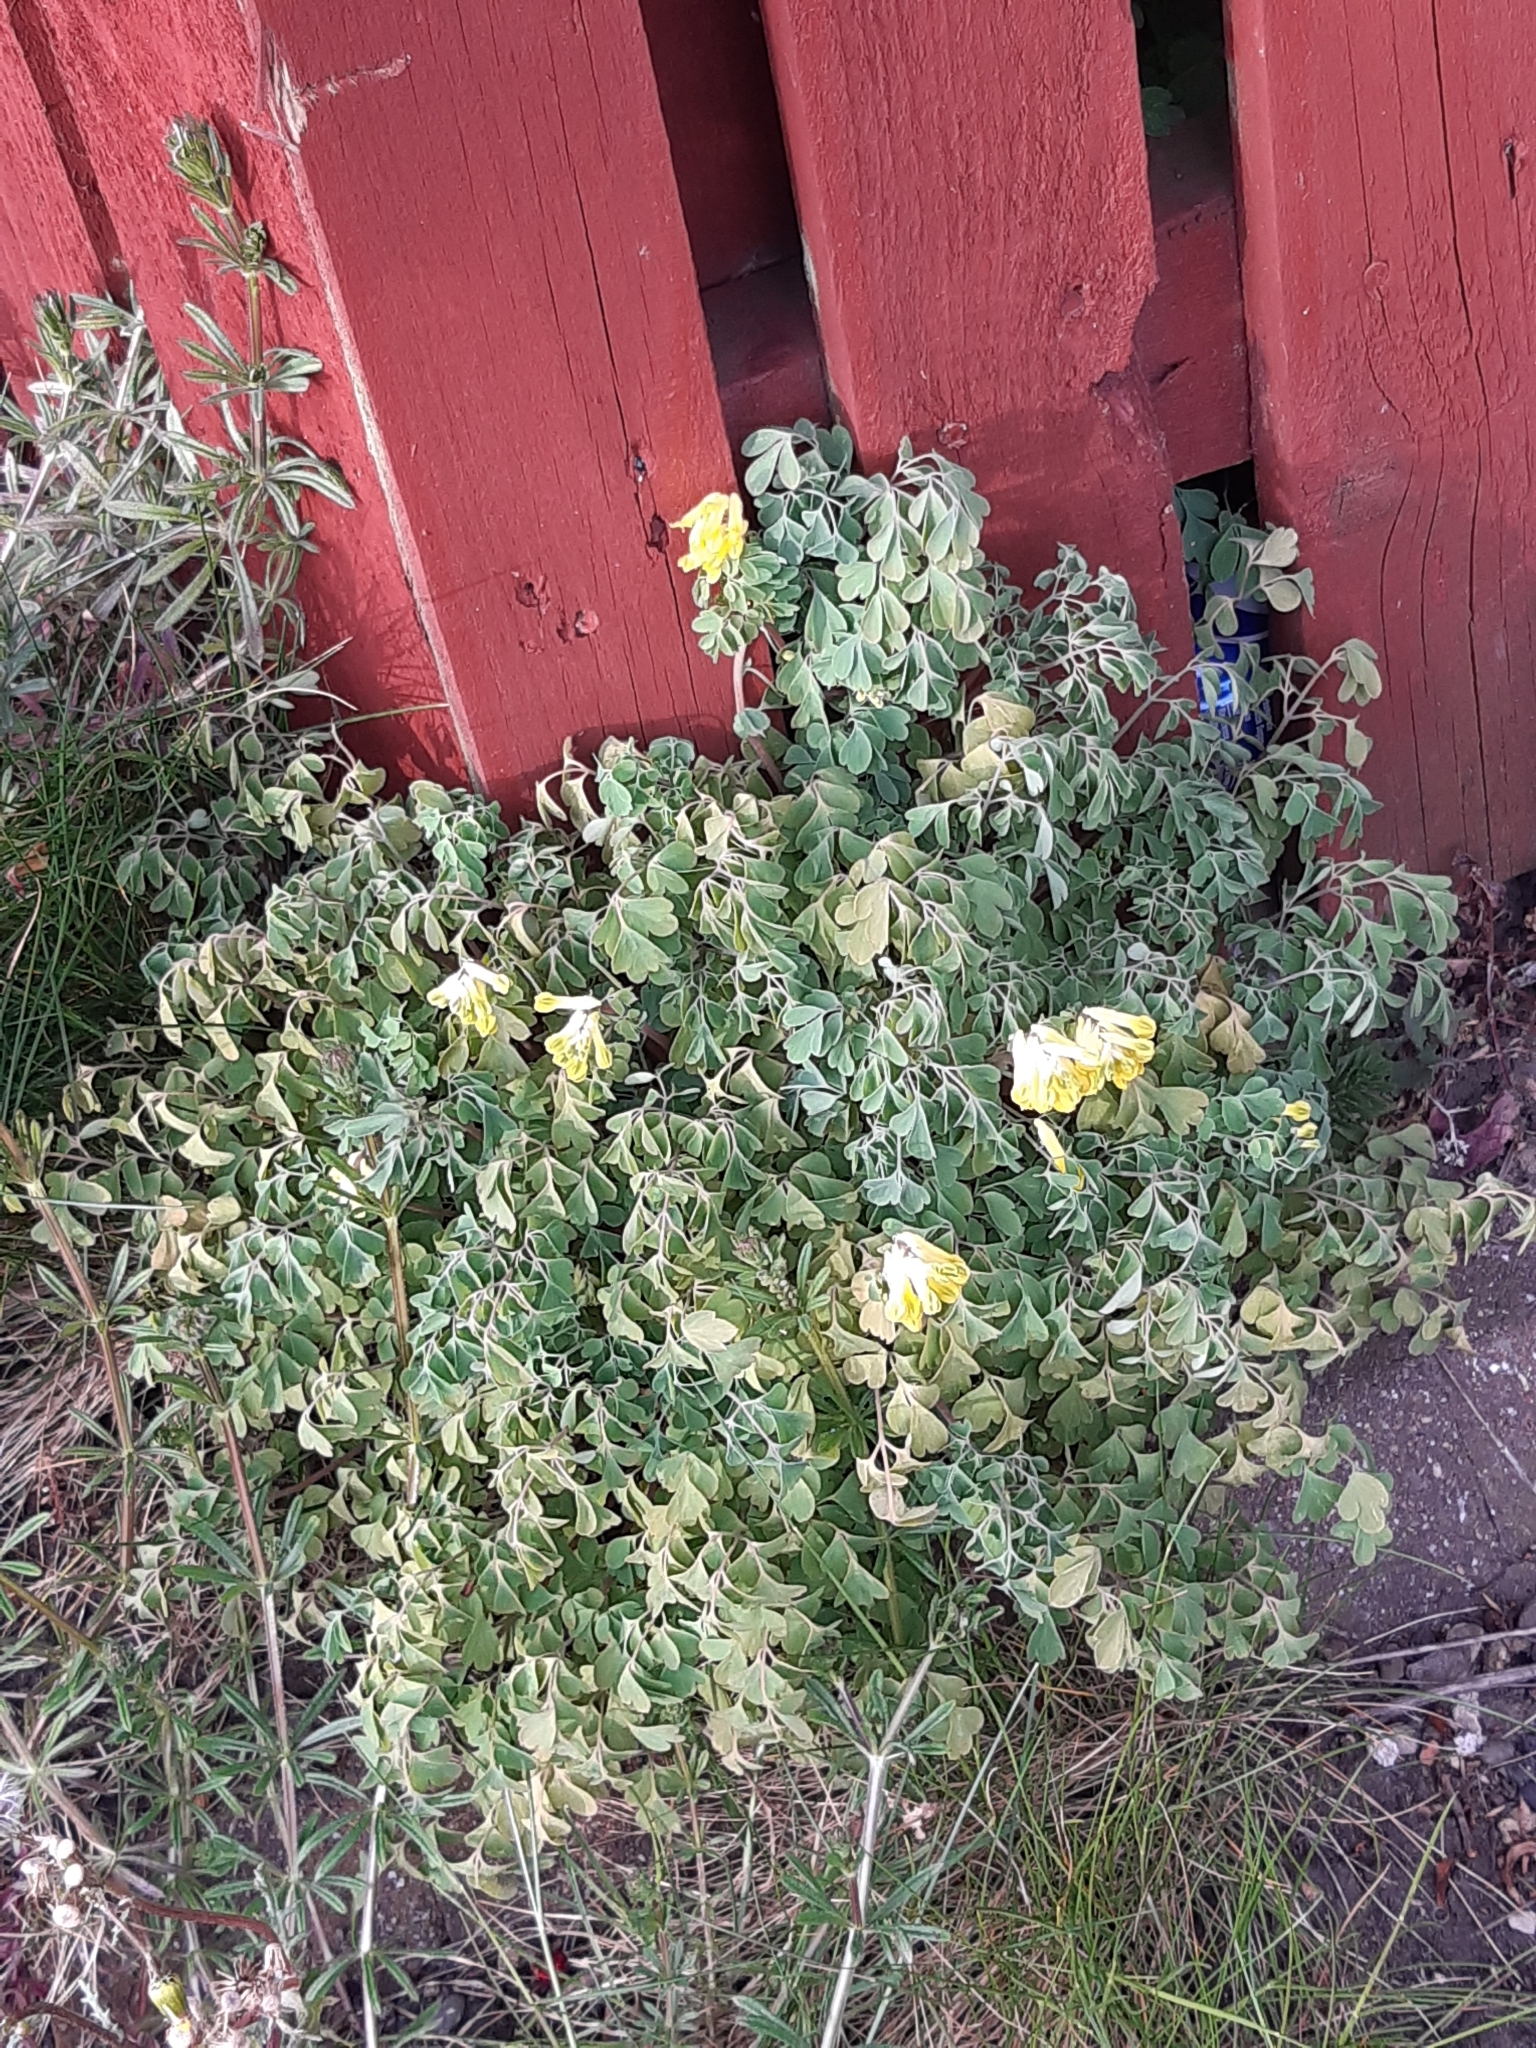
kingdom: Plantae
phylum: Tracheophyta
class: Magnoliopsida
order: Ranunculales
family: Papaveraceae
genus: Pseudofumaria
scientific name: Pseudofumaria lutea
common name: Yellow corydalis
